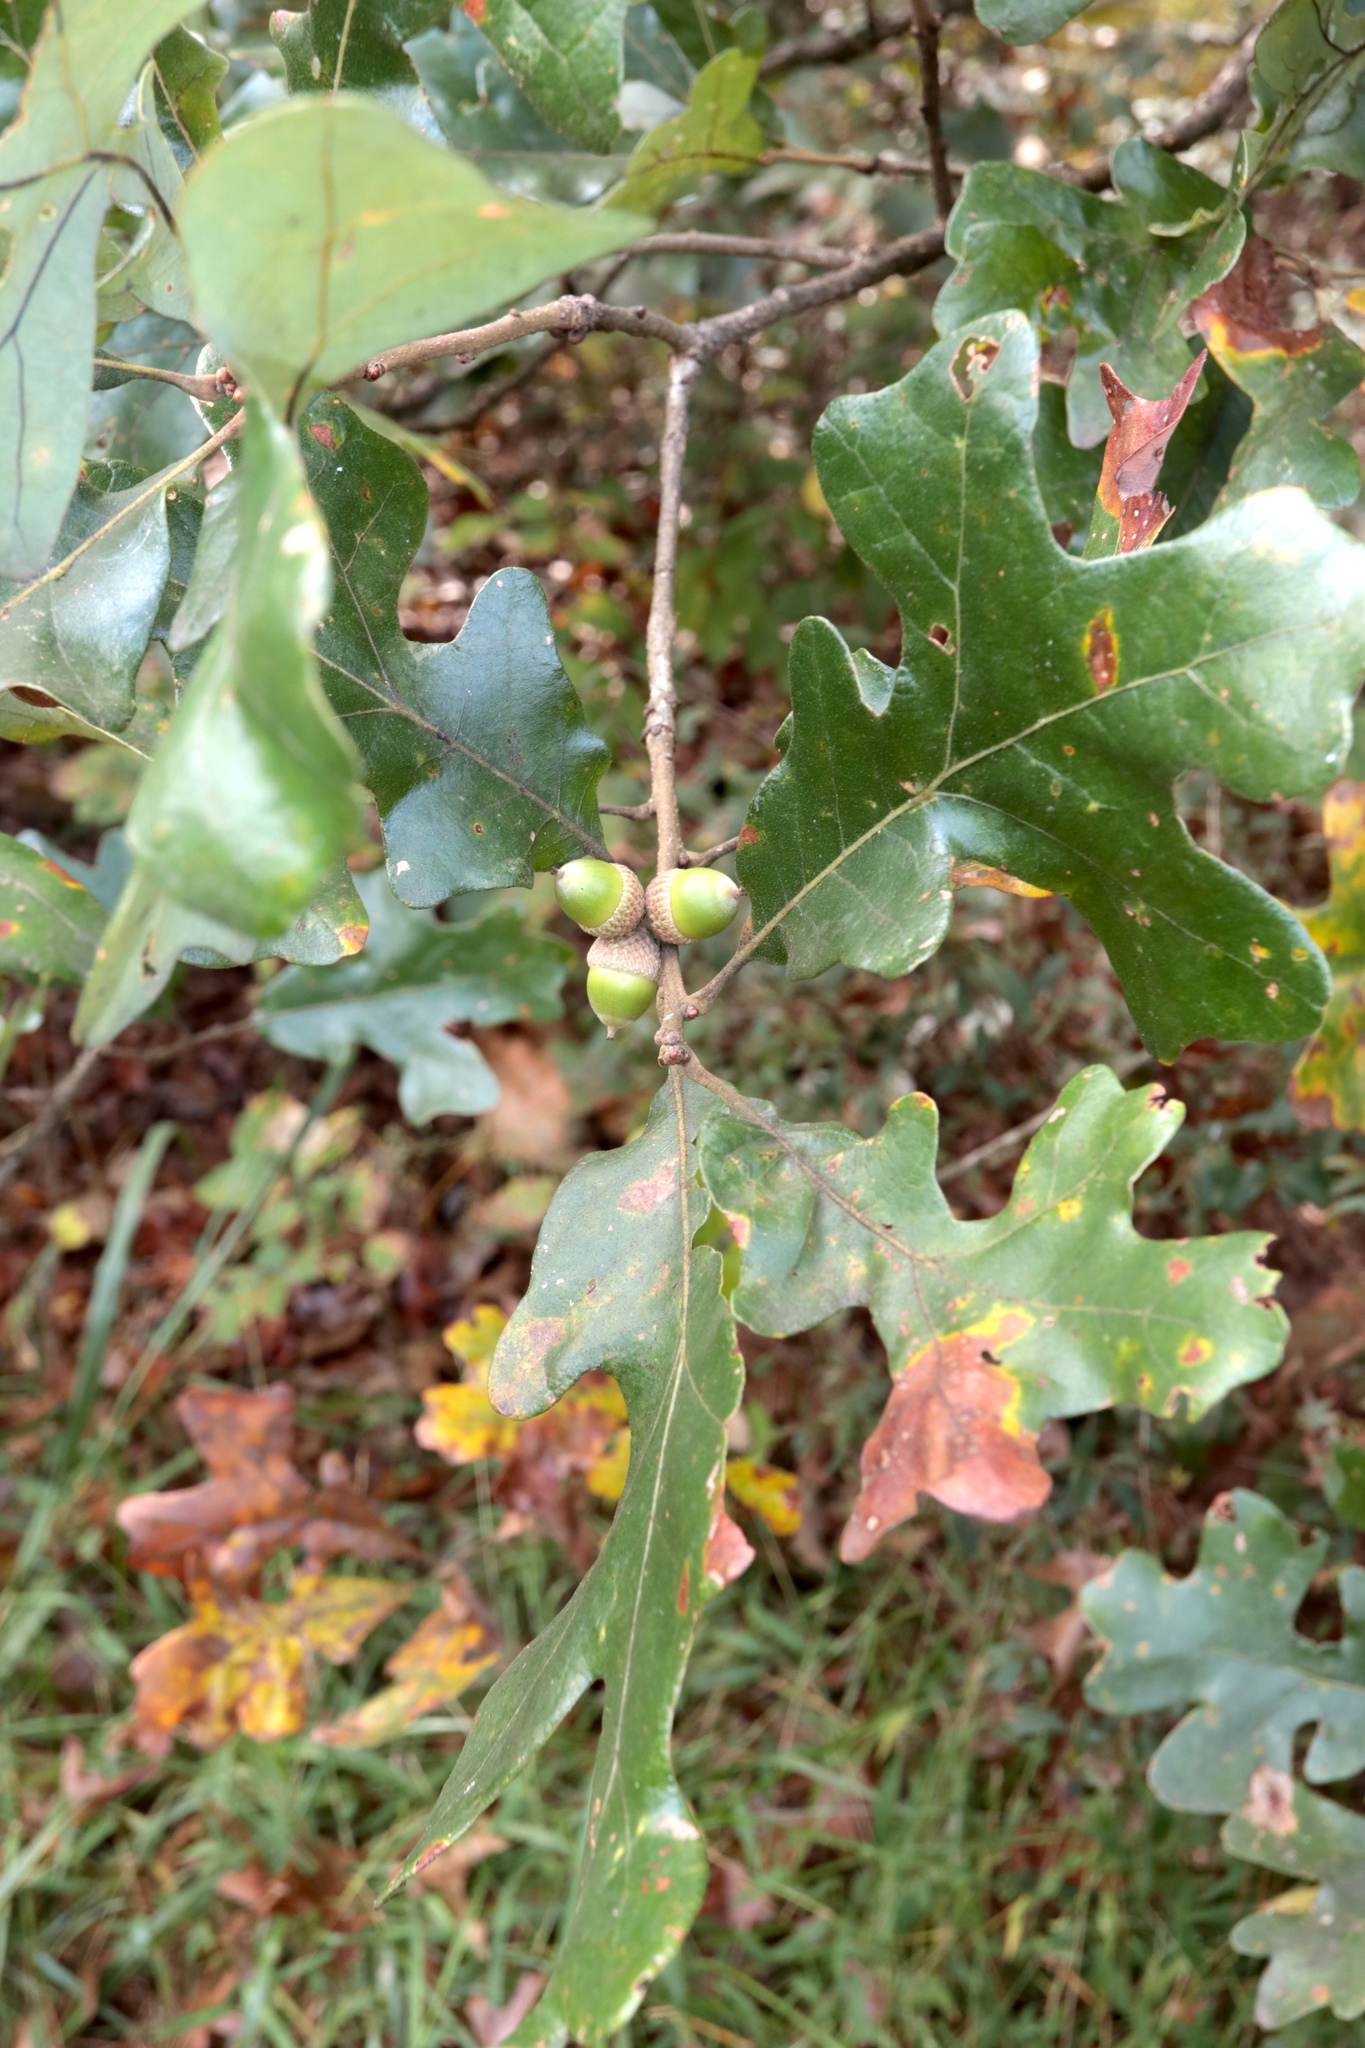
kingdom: Plantae
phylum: Tracheophyta
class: Magnoliopsida
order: Fagales
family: Fagaceae
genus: Quercus
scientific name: Quercus stellata
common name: Post oak
